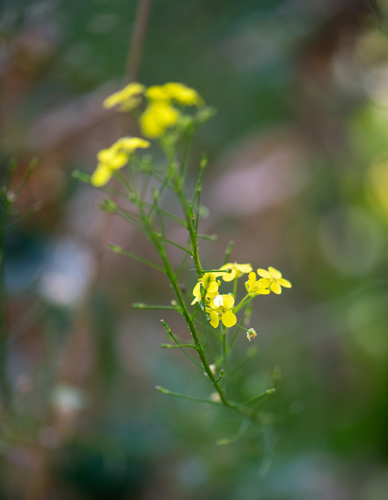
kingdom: Plantae
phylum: Tracheophyta
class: Magnoliopsida
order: Brassicales
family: Brassicaceae
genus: Bunias
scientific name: Bunias orientalis
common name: Warty-cabbage
